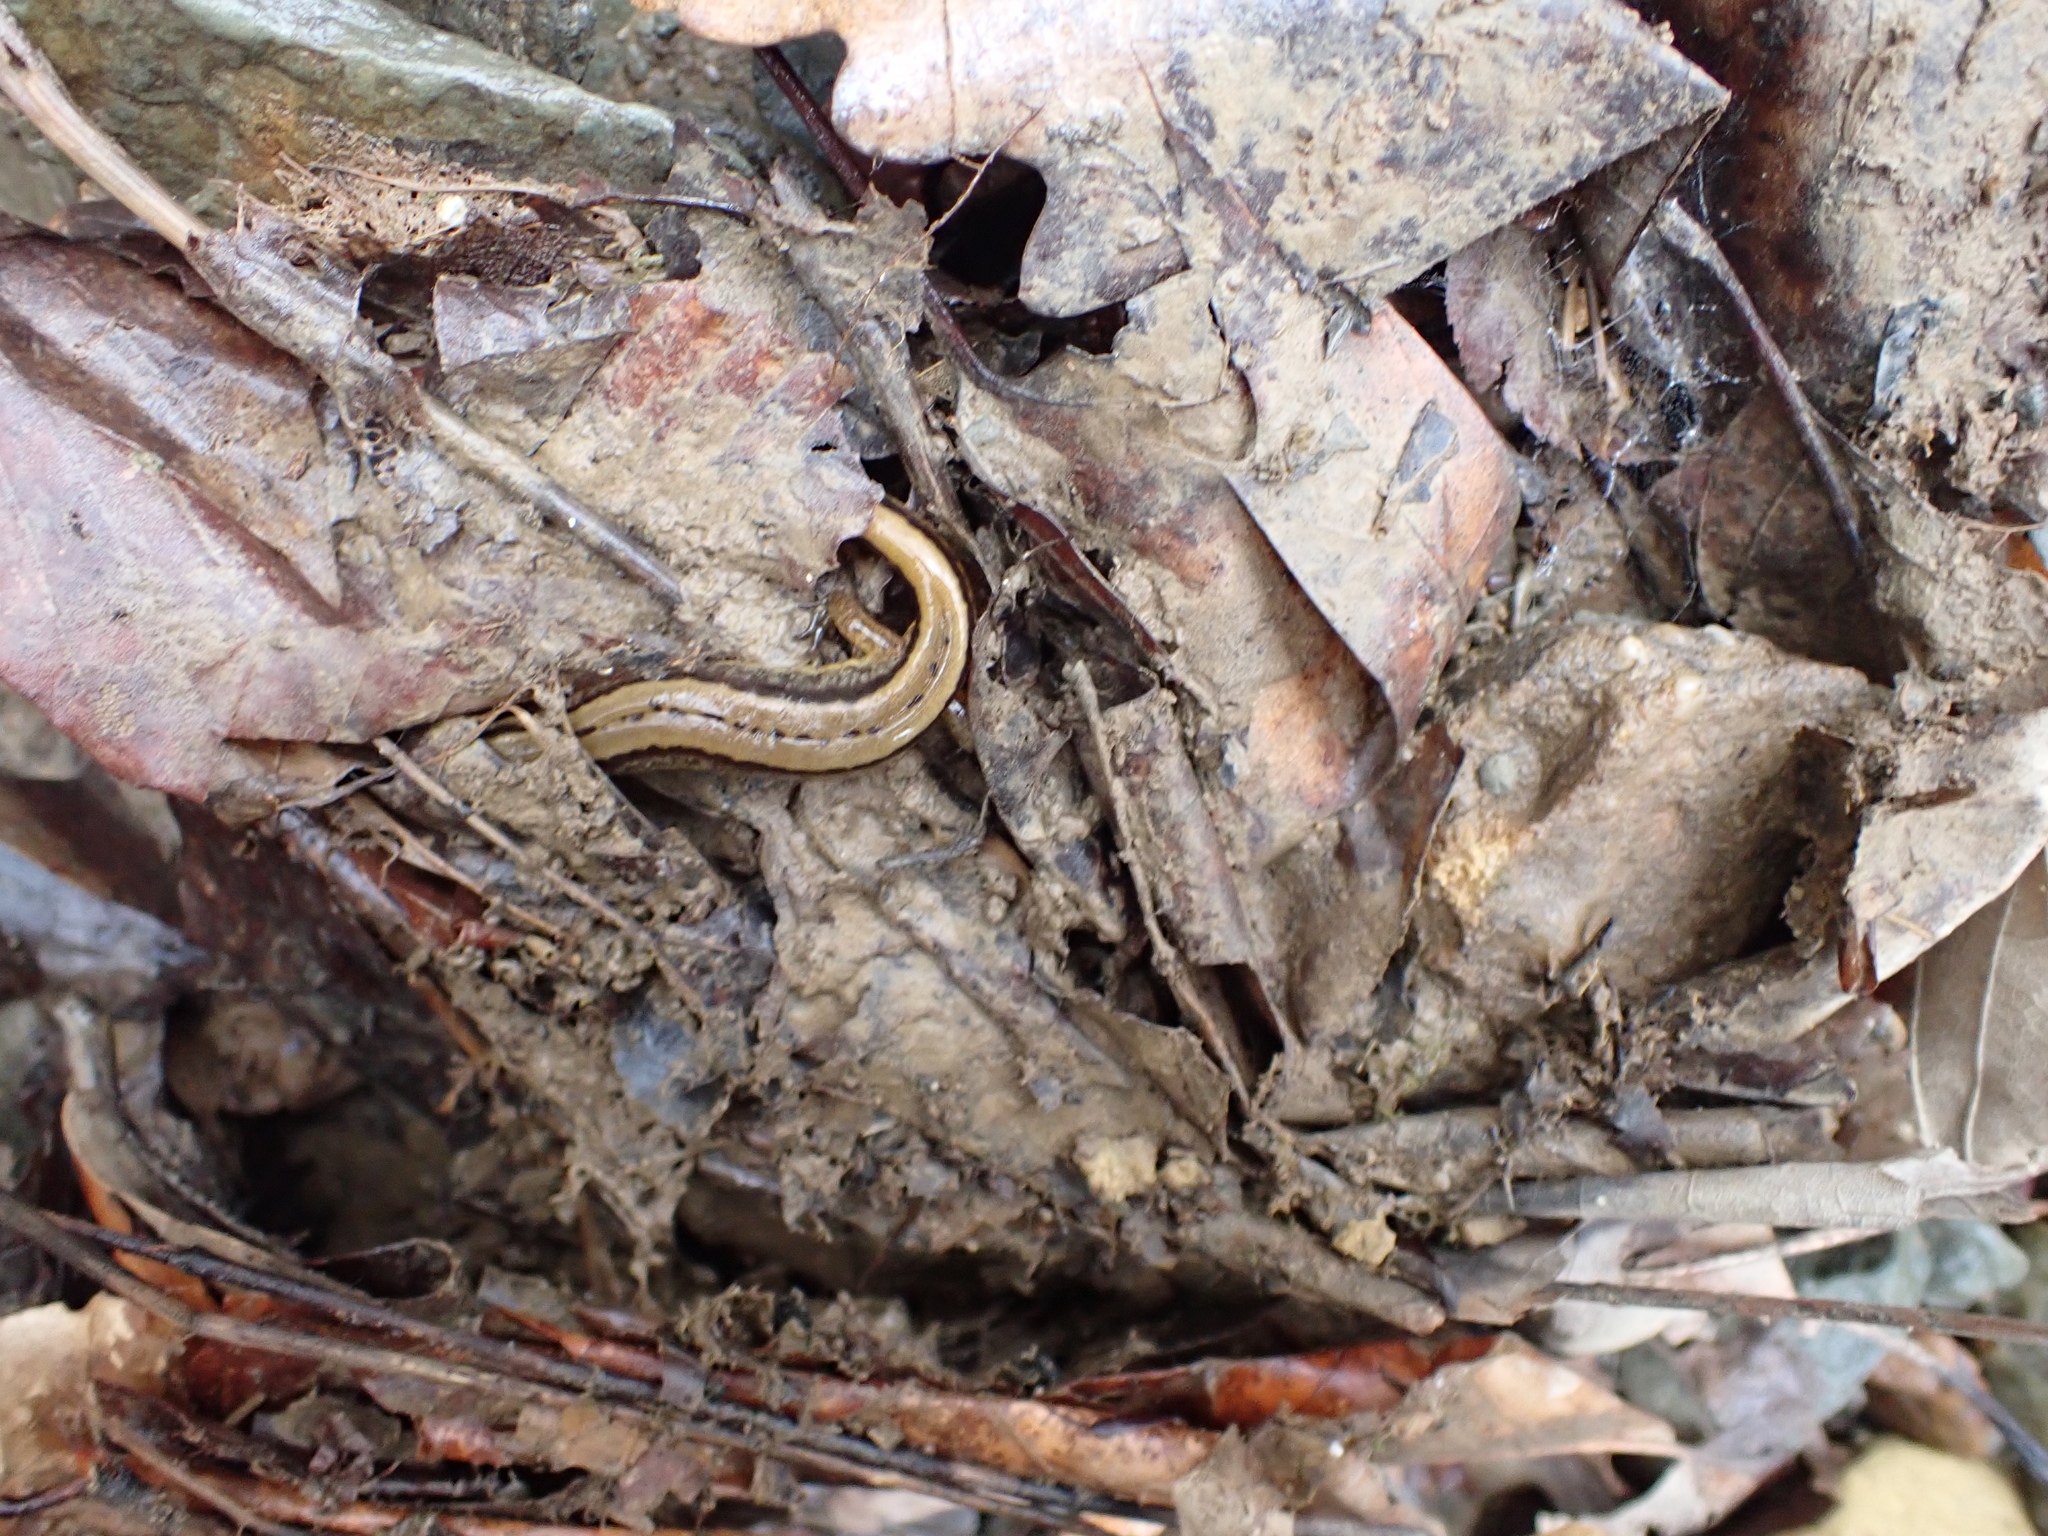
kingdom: Animalia
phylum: Chordata
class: Amphibia
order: Caudata
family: Plethodontidae
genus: Eurycea
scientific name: Eurycea cirrigera
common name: Southern two-lined salamander
